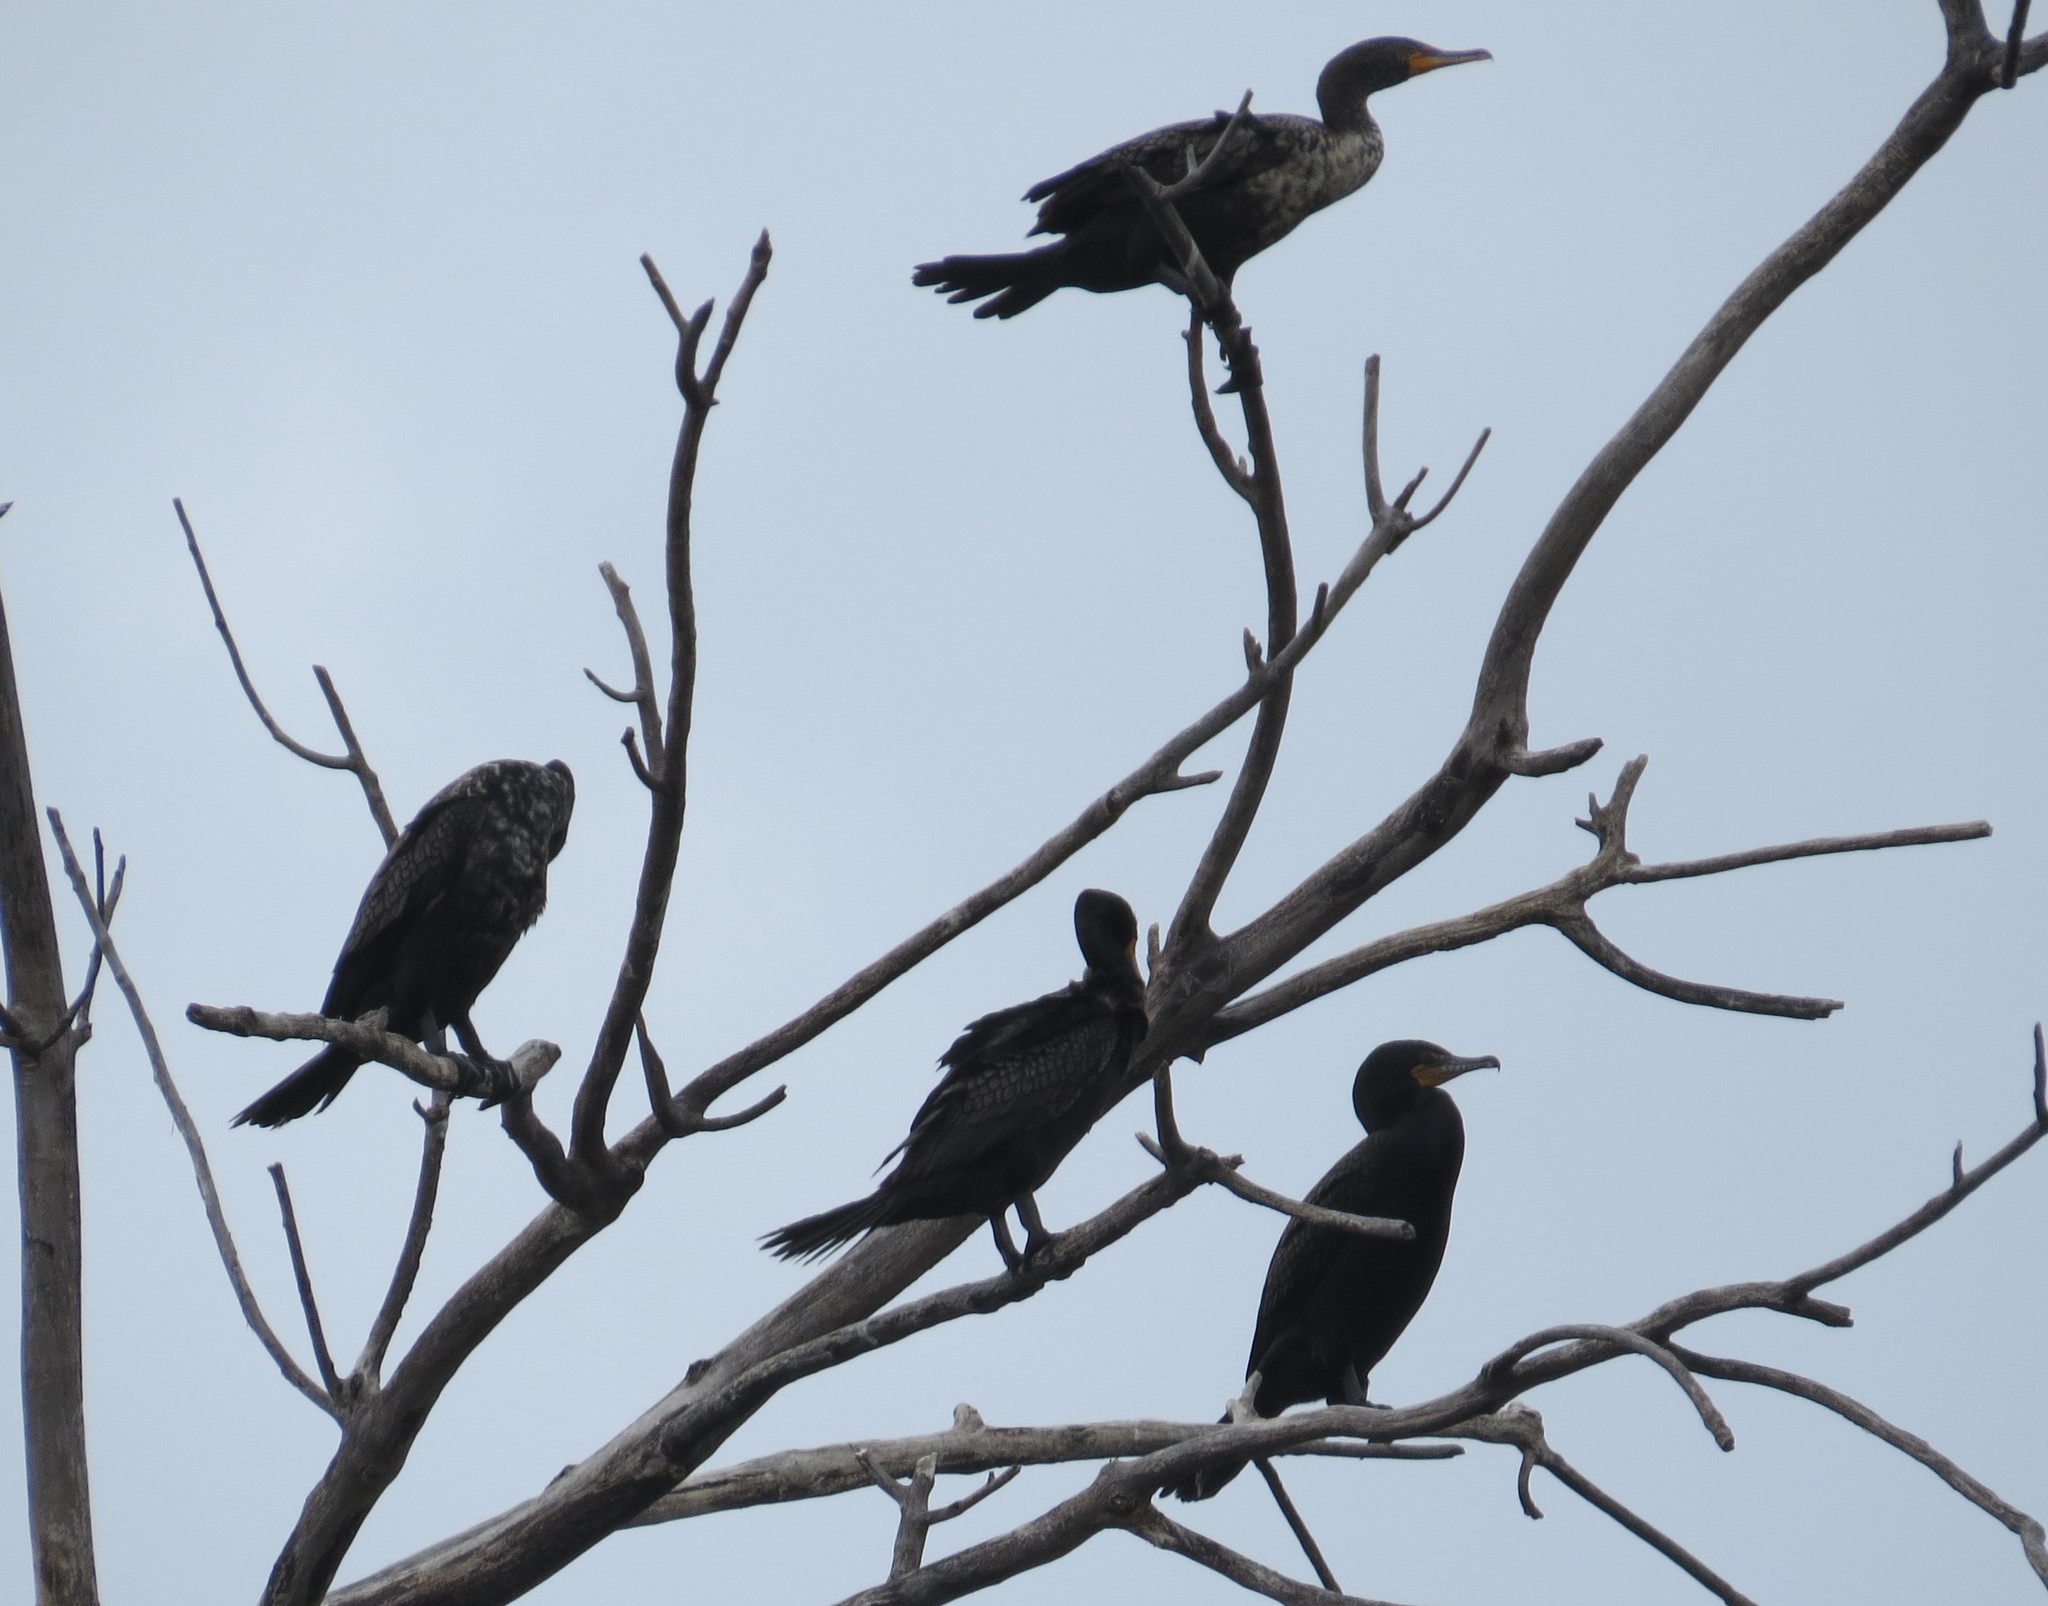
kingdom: Animalia
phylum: Chordata
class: Aves
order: Suliformes
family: Phalacrocoracidae
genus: Phalacrocorax
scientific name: Phalacrocorax auritus
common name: Double-crested cormorant
